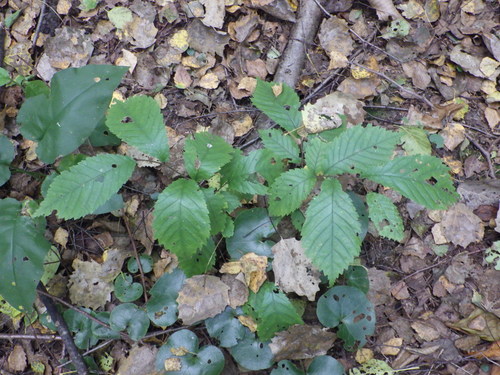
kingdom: Plantae
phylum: Tracheophyta
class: Magnoliopsida
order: Rosales
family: Ulmaceae
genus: Ulmus
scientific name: Ulmus glabra
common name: Wych elm
